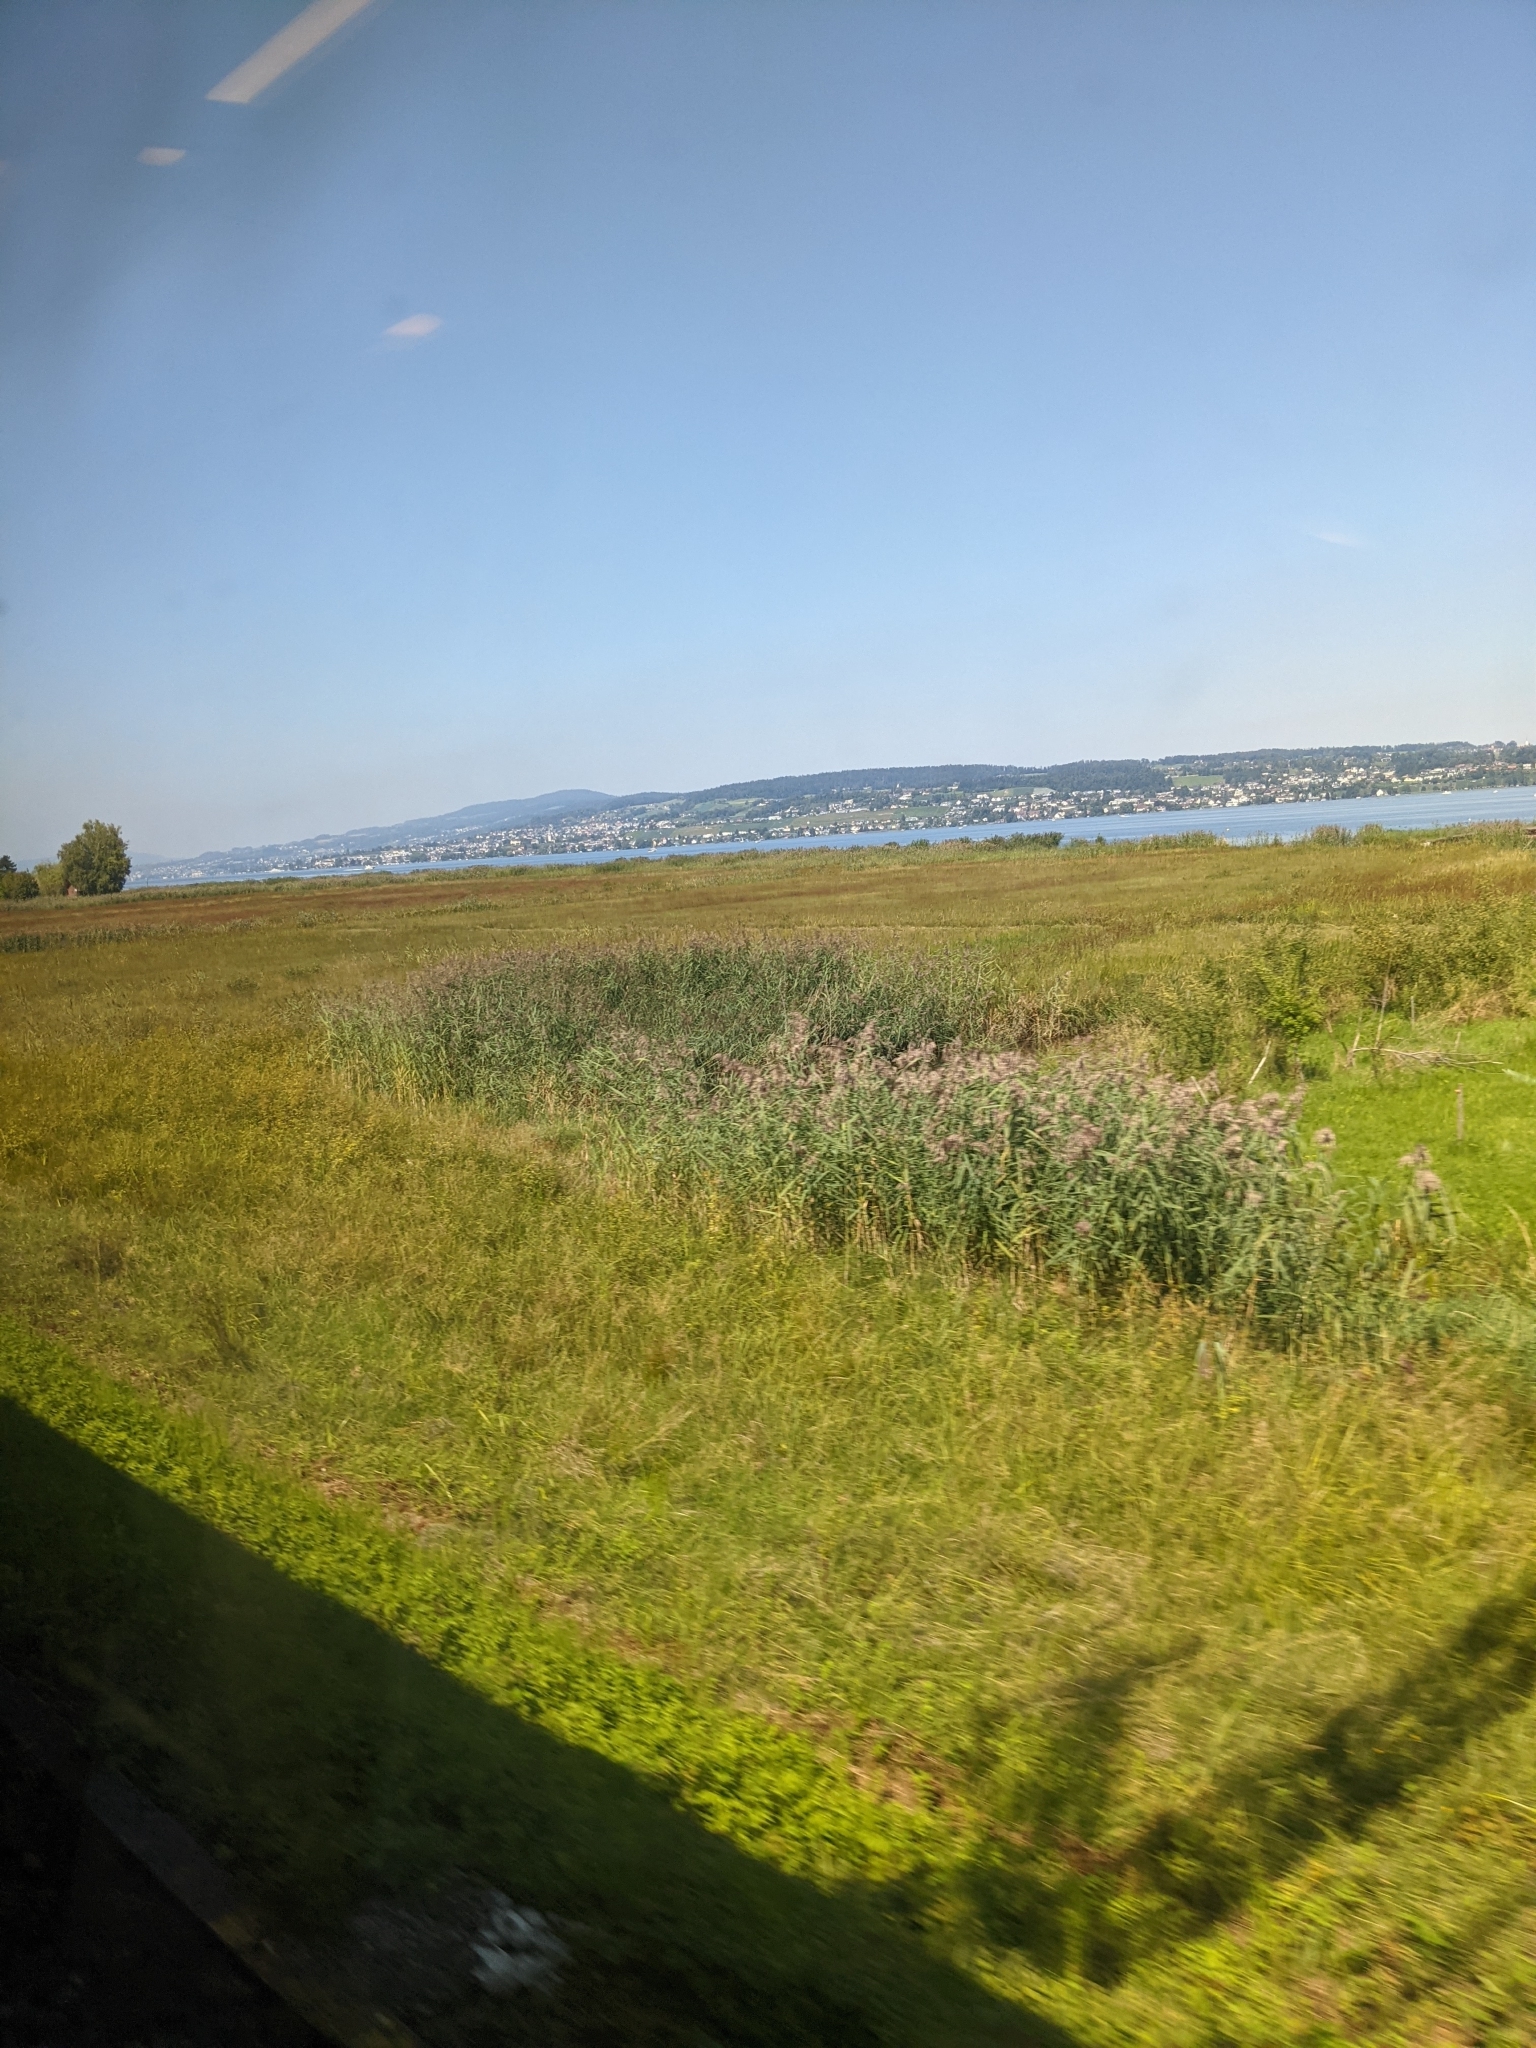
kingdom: Plantae
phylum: Tracheophyta
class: Liliopsida
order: Poales
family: Poaceae
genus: Phragmites
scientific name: Phragmites australis
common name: Common reed
